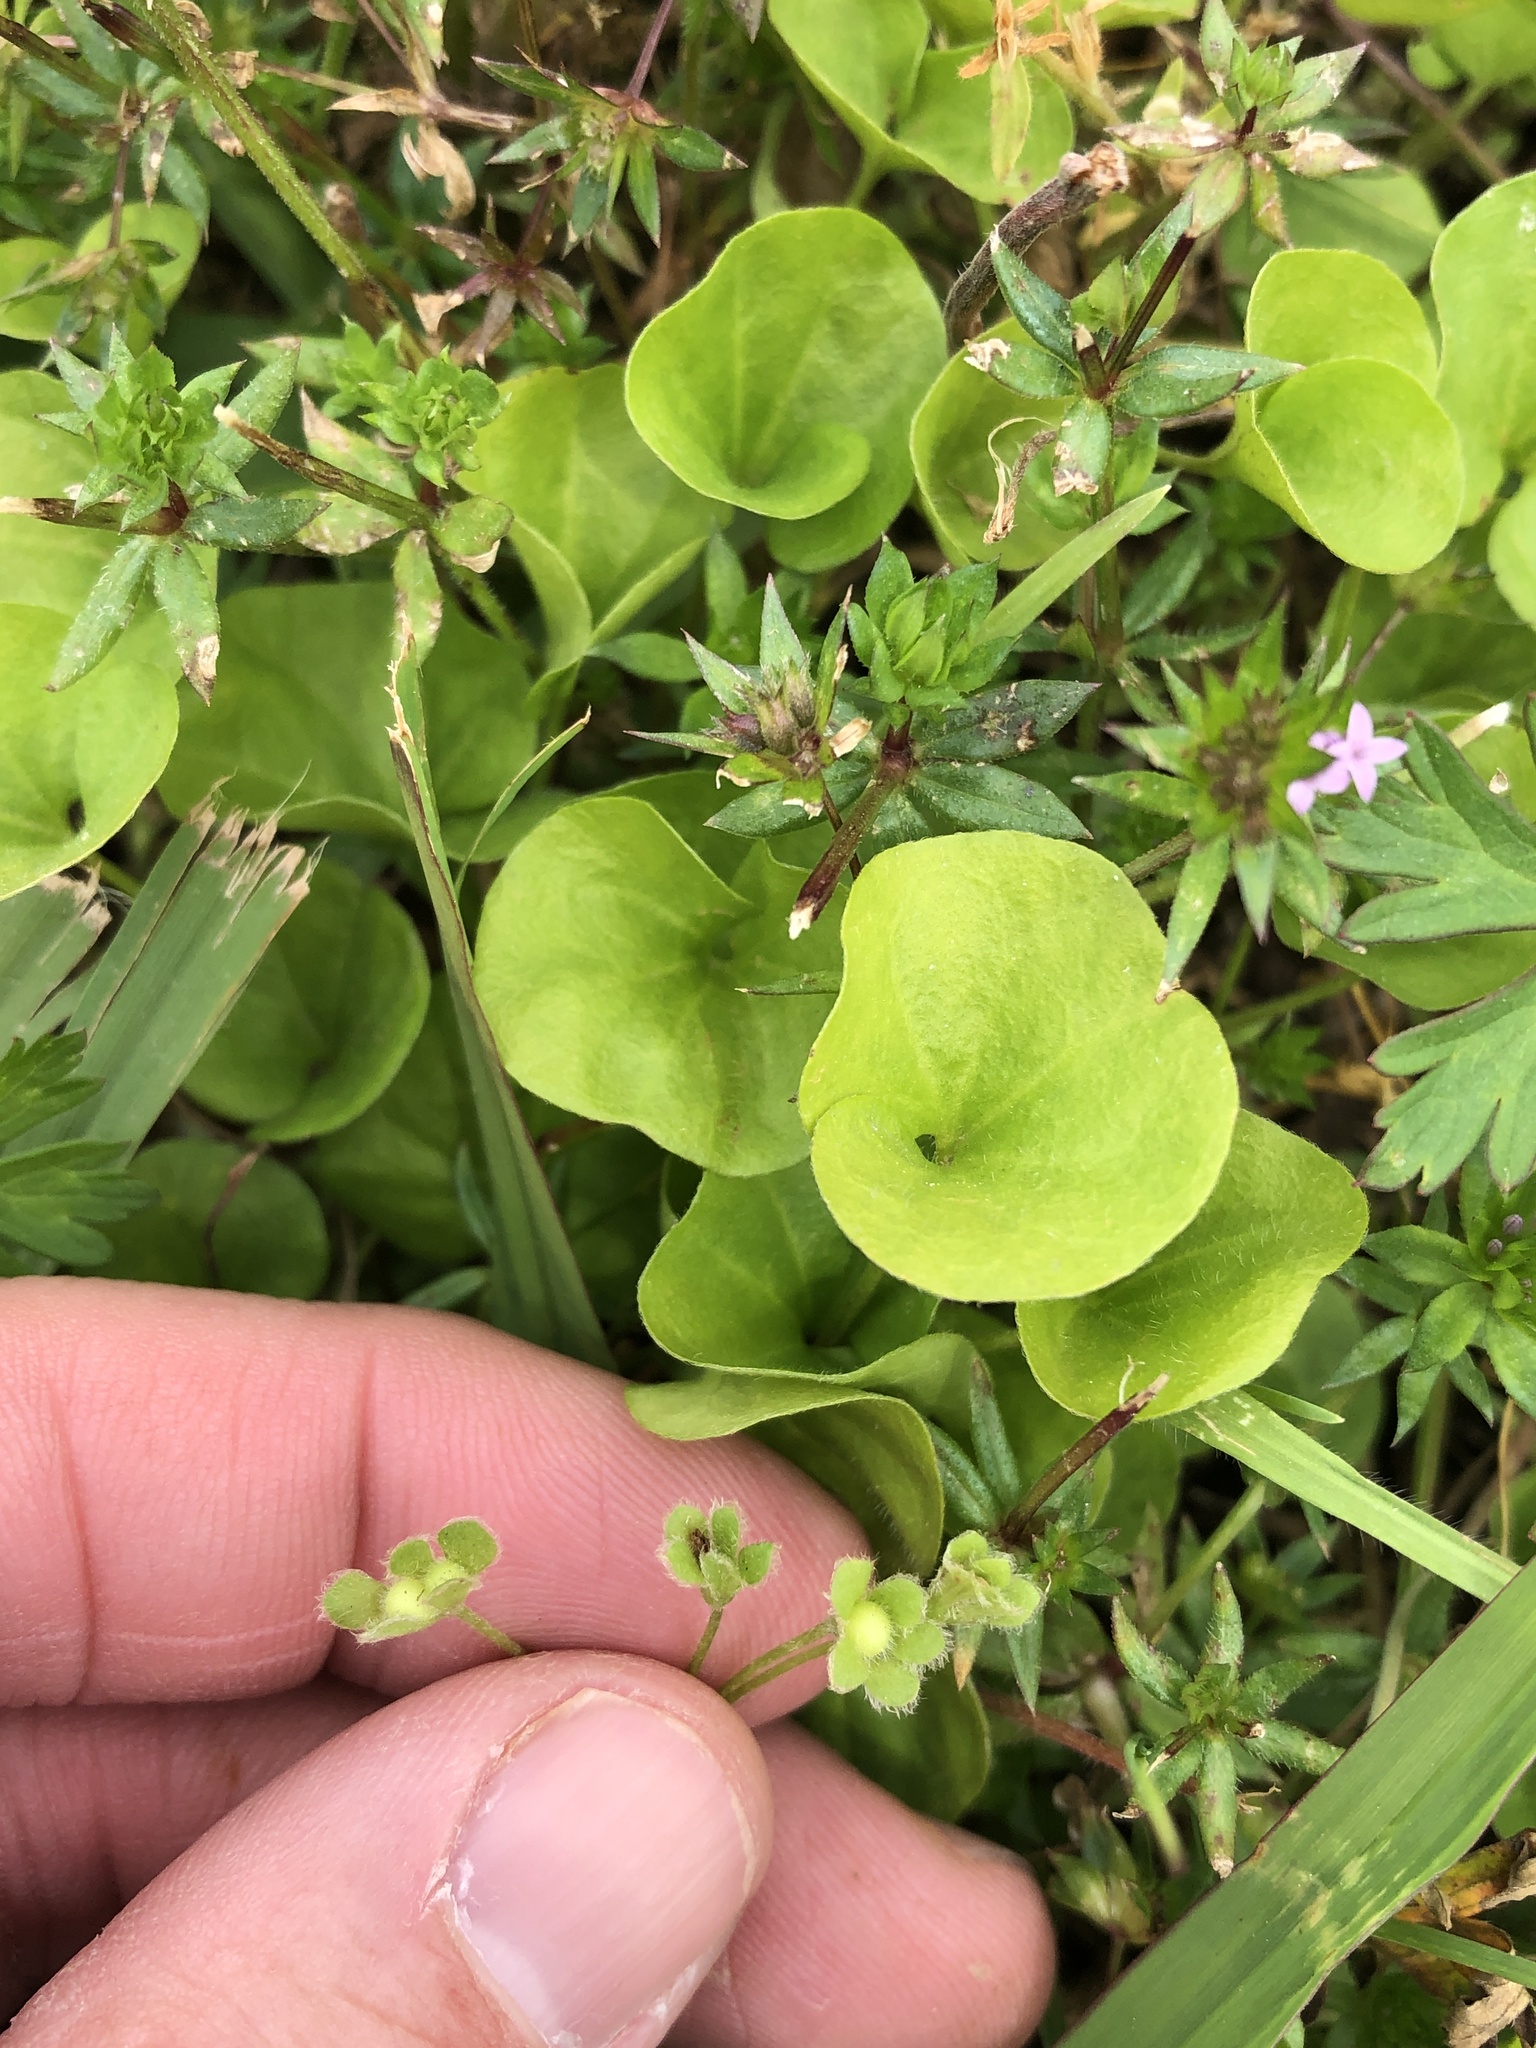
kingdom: Plantae
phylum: Tracheophyta
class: Magnoliopsida
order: Solanales
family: Convolvulaceae
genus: Dichondra
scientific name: Dichondra carolinensis
